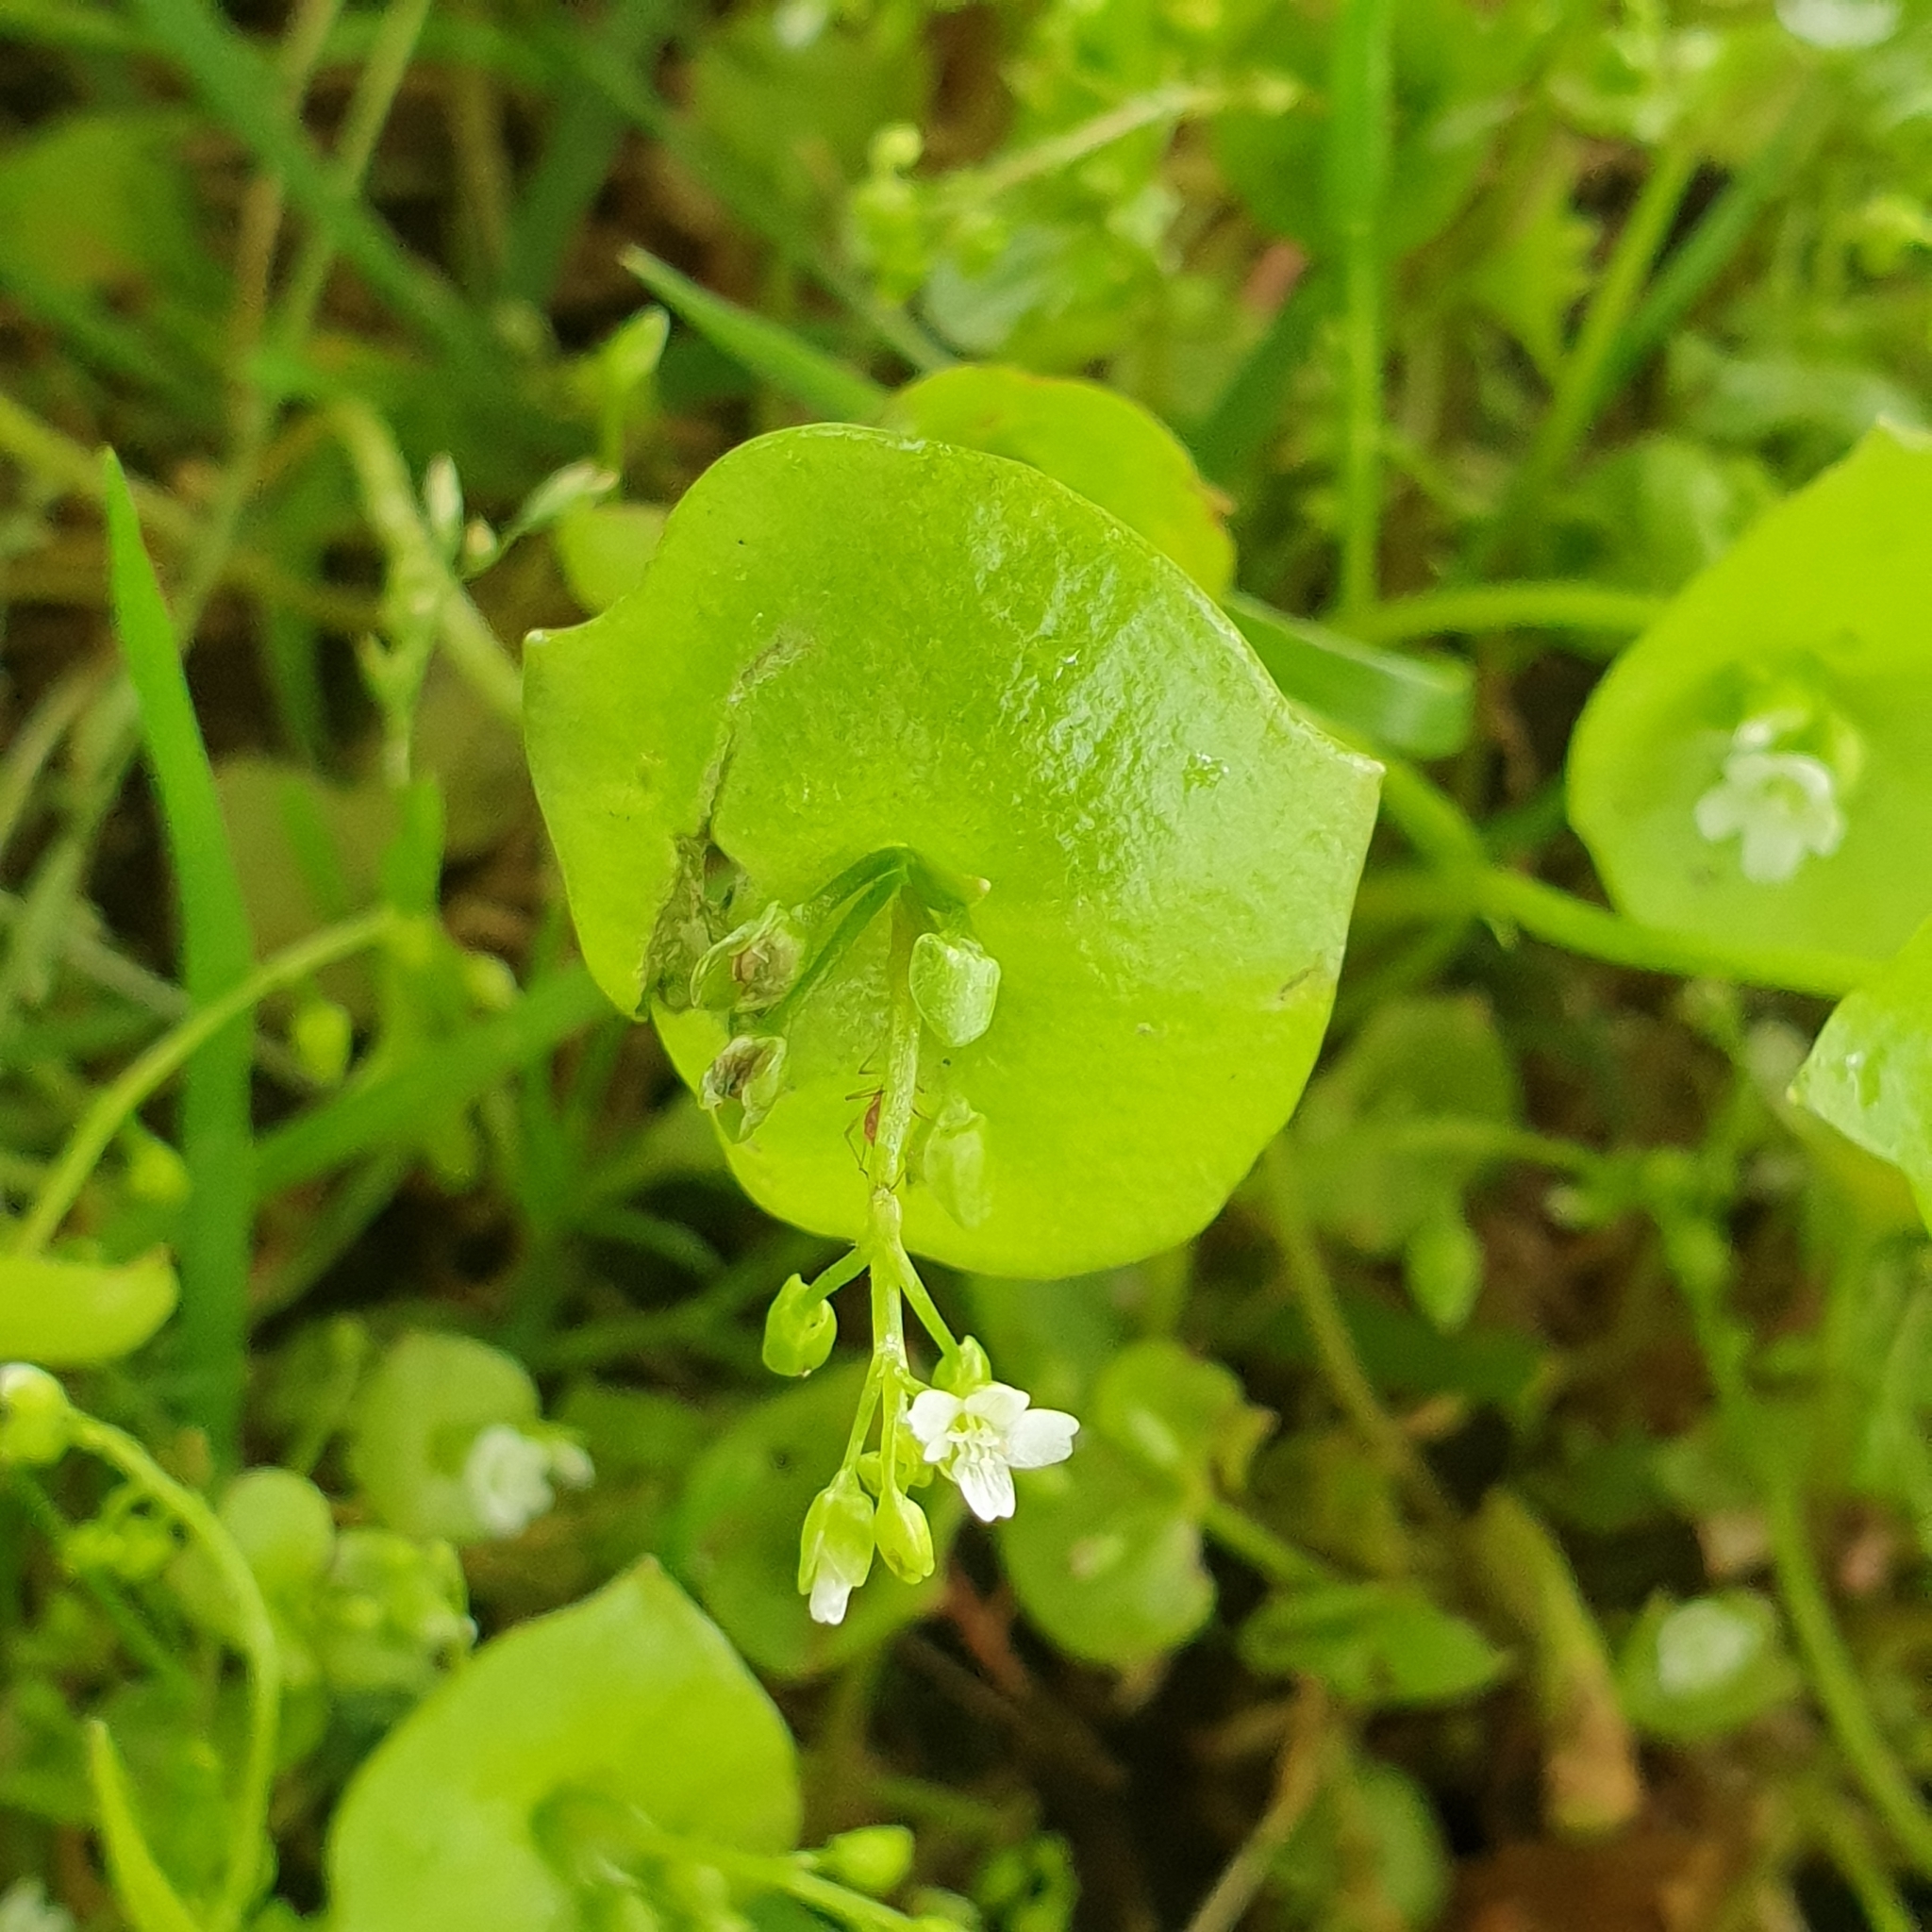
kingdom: Plantae
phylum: Tracheophyta
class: Magnoliopsida
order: Caryophyllales
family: Montiaceae
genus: Claytonia
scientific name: Claytonia perfoliata
